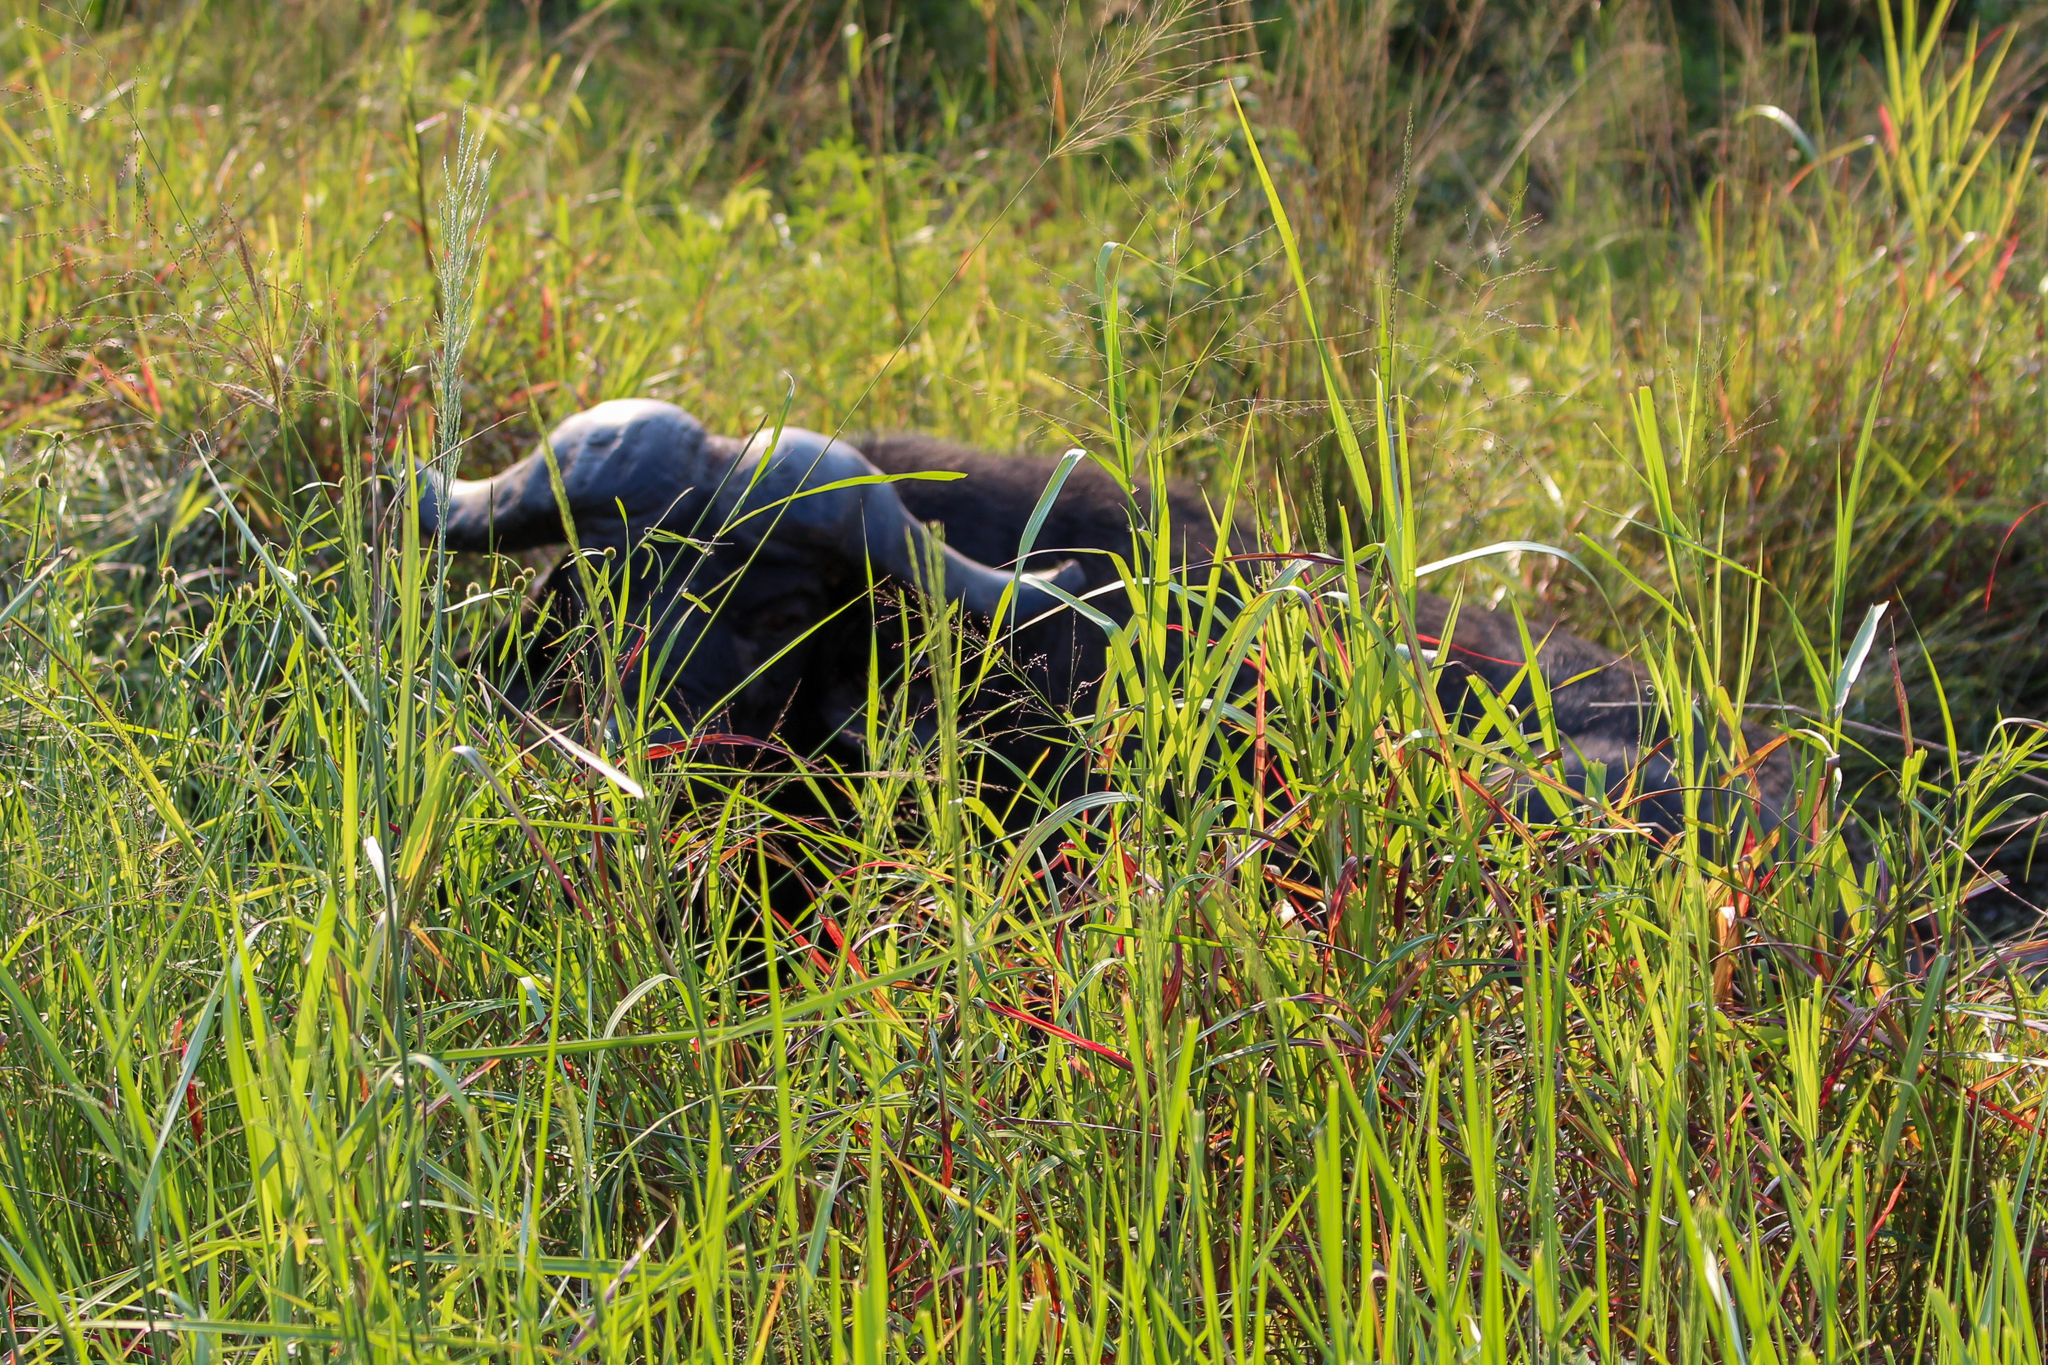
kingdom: Animalia
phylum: Chordata
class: Mammalia
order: Artiodactyla
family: Bovidae
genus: Syncerus
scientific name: Syncerus caffer
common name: African buffalo
